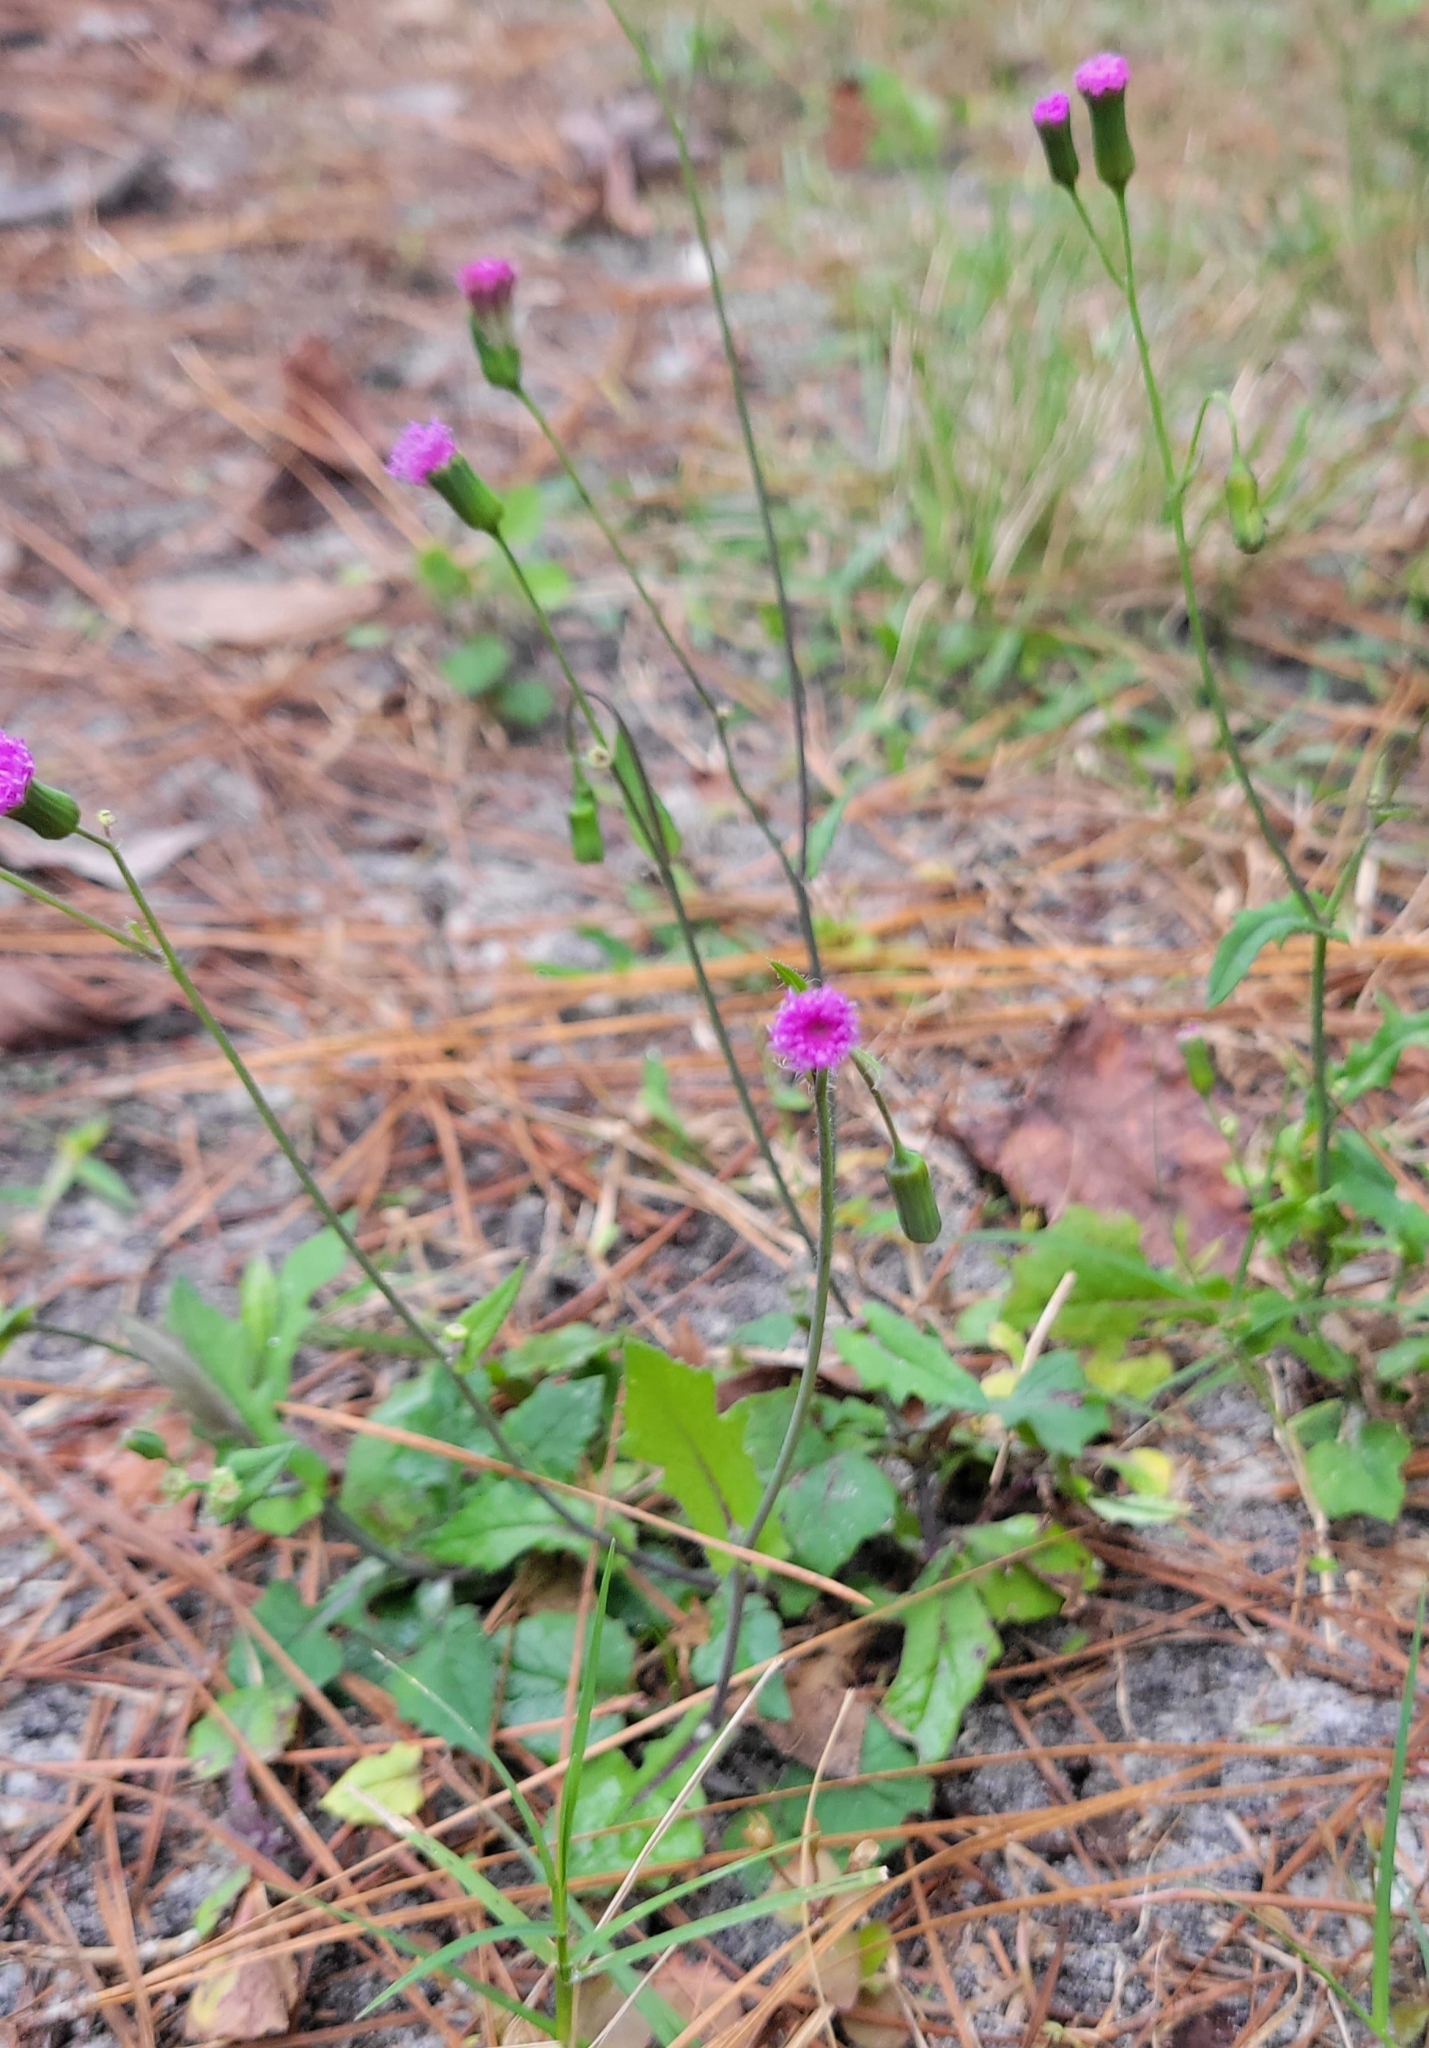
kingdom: Plantae
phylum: Tracheophyta
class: Magnoliopsida
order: Asterales
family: Asteraceae
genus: Emilia
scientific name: Emilia sonchifolia
